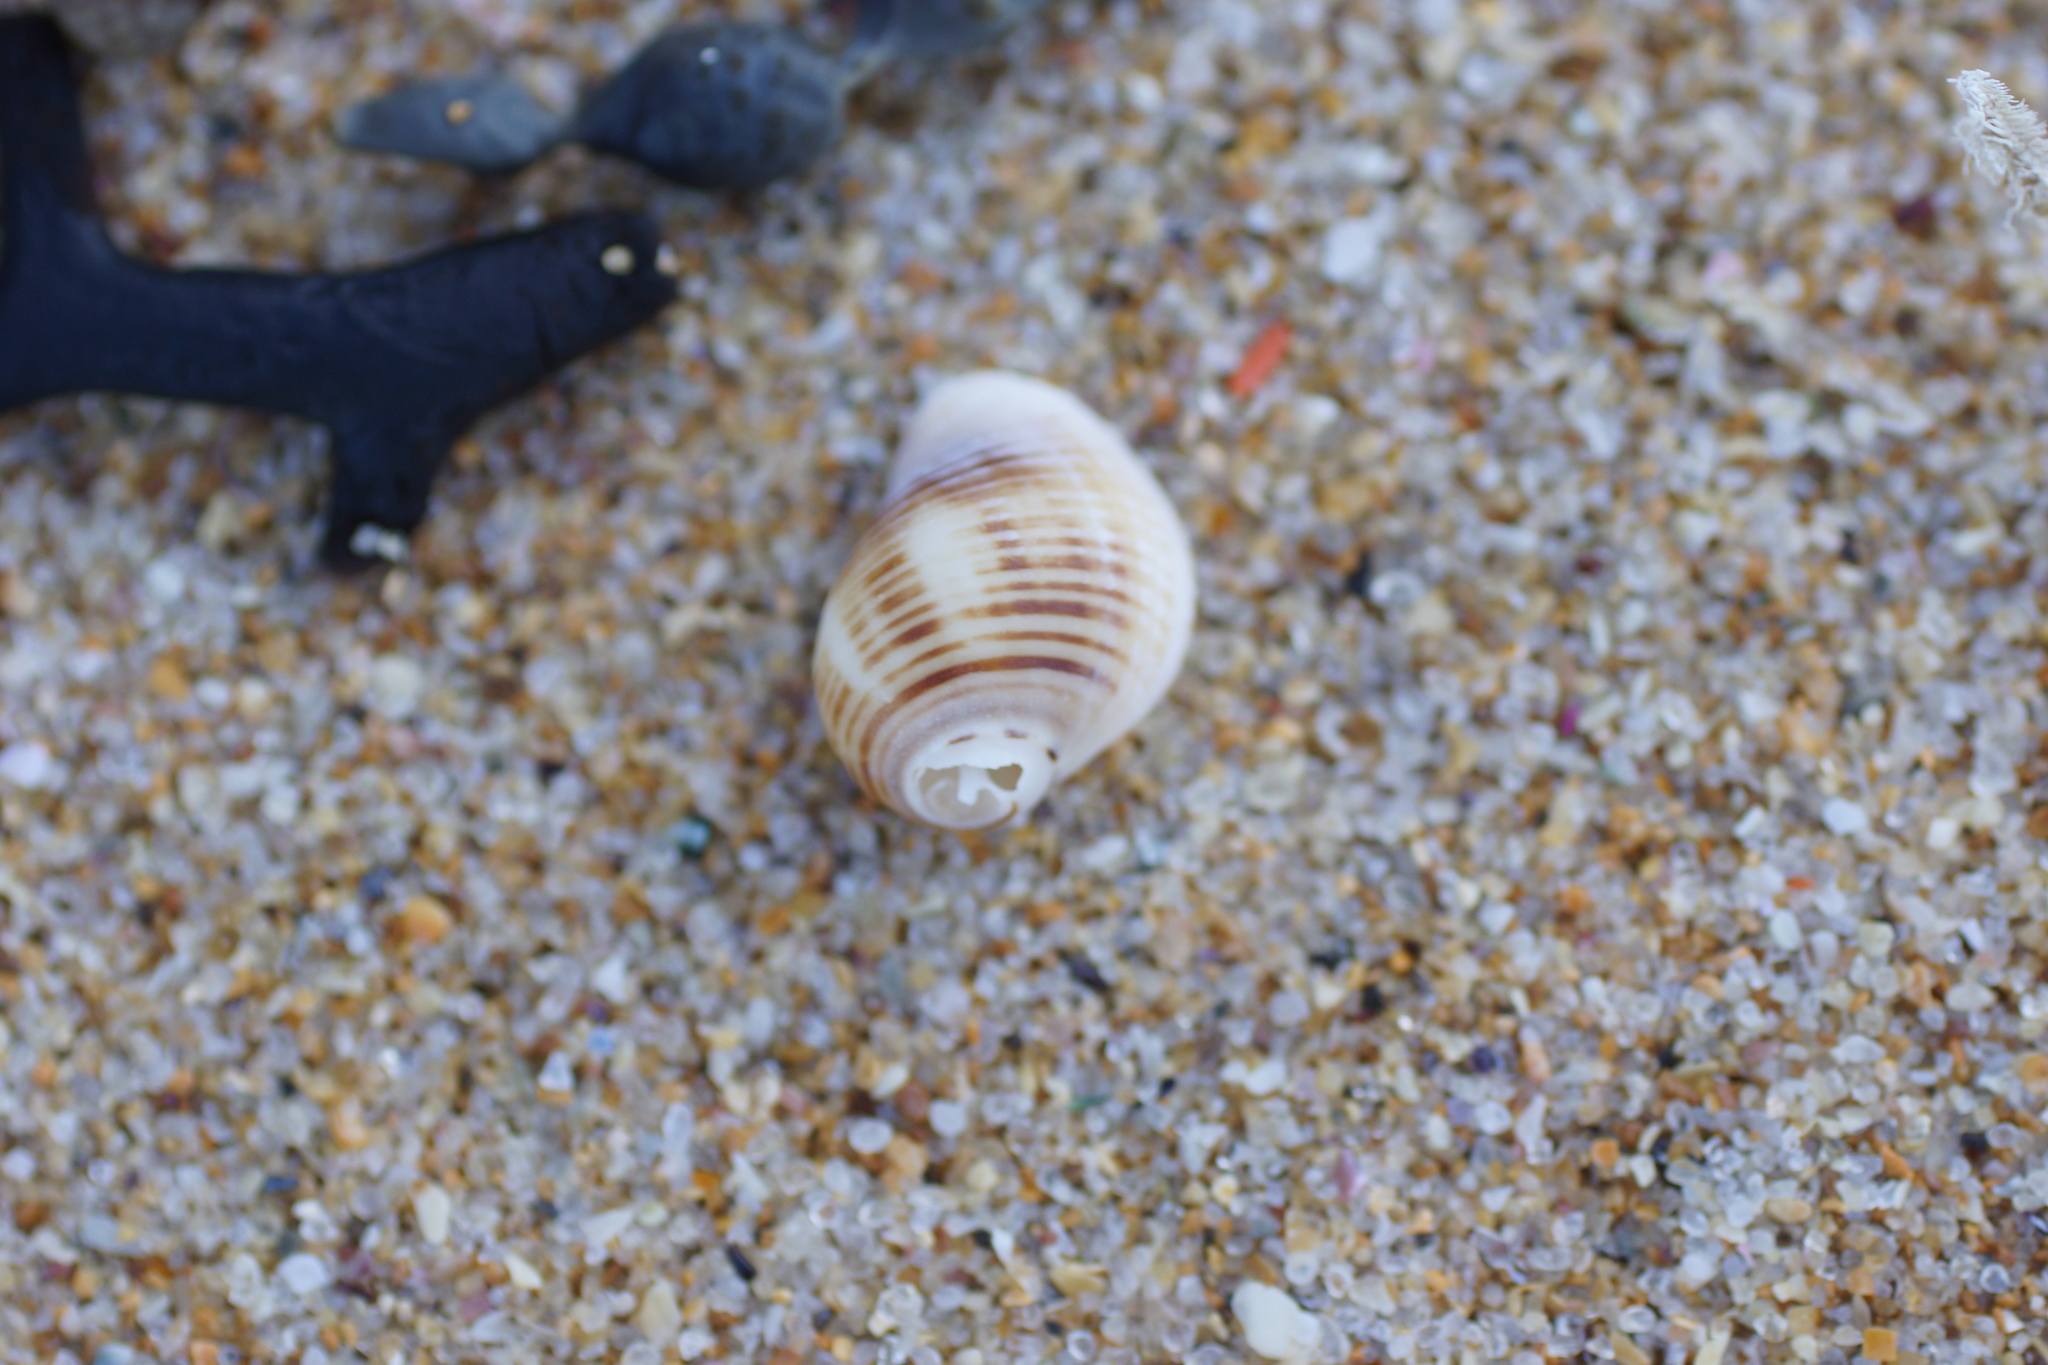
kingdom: Animalia
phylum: Mollusca
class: Gastropoda
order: Neogastropoda
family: Muricidae
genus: Dicathais
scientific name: Dicathais orbita
